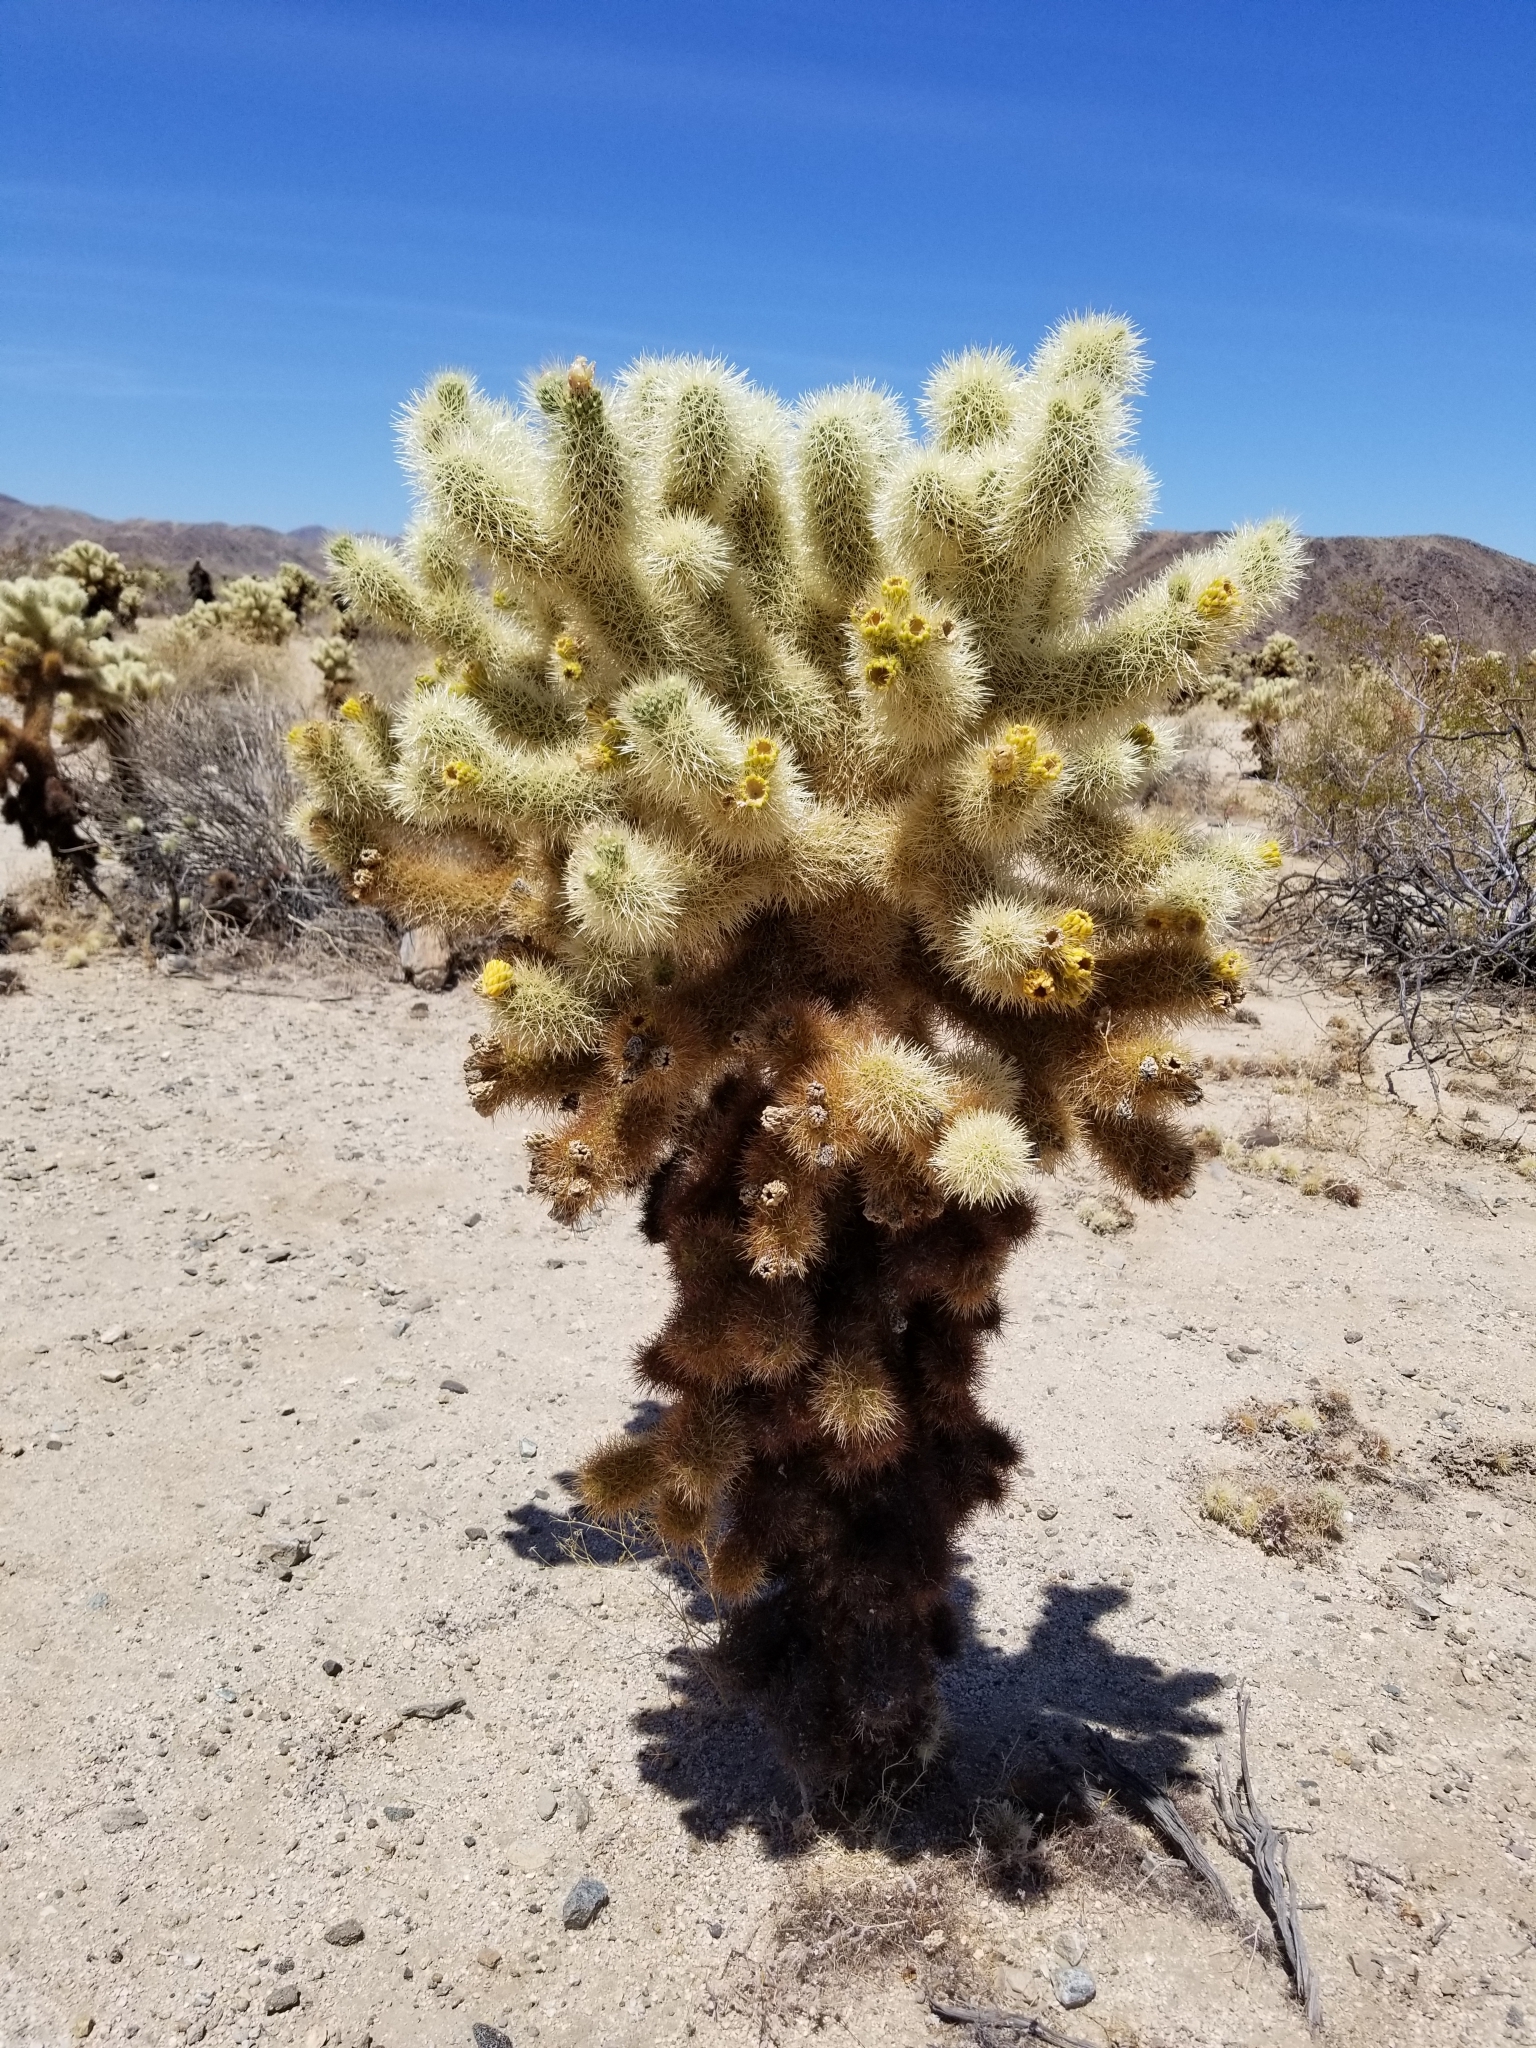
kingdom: Plantae
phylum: Tracheophyta
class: Magnoliopsida
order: Caryophyllales
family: Cactaceae
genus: Cylindropuntia
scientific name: Cylindropuntia fosbergii
